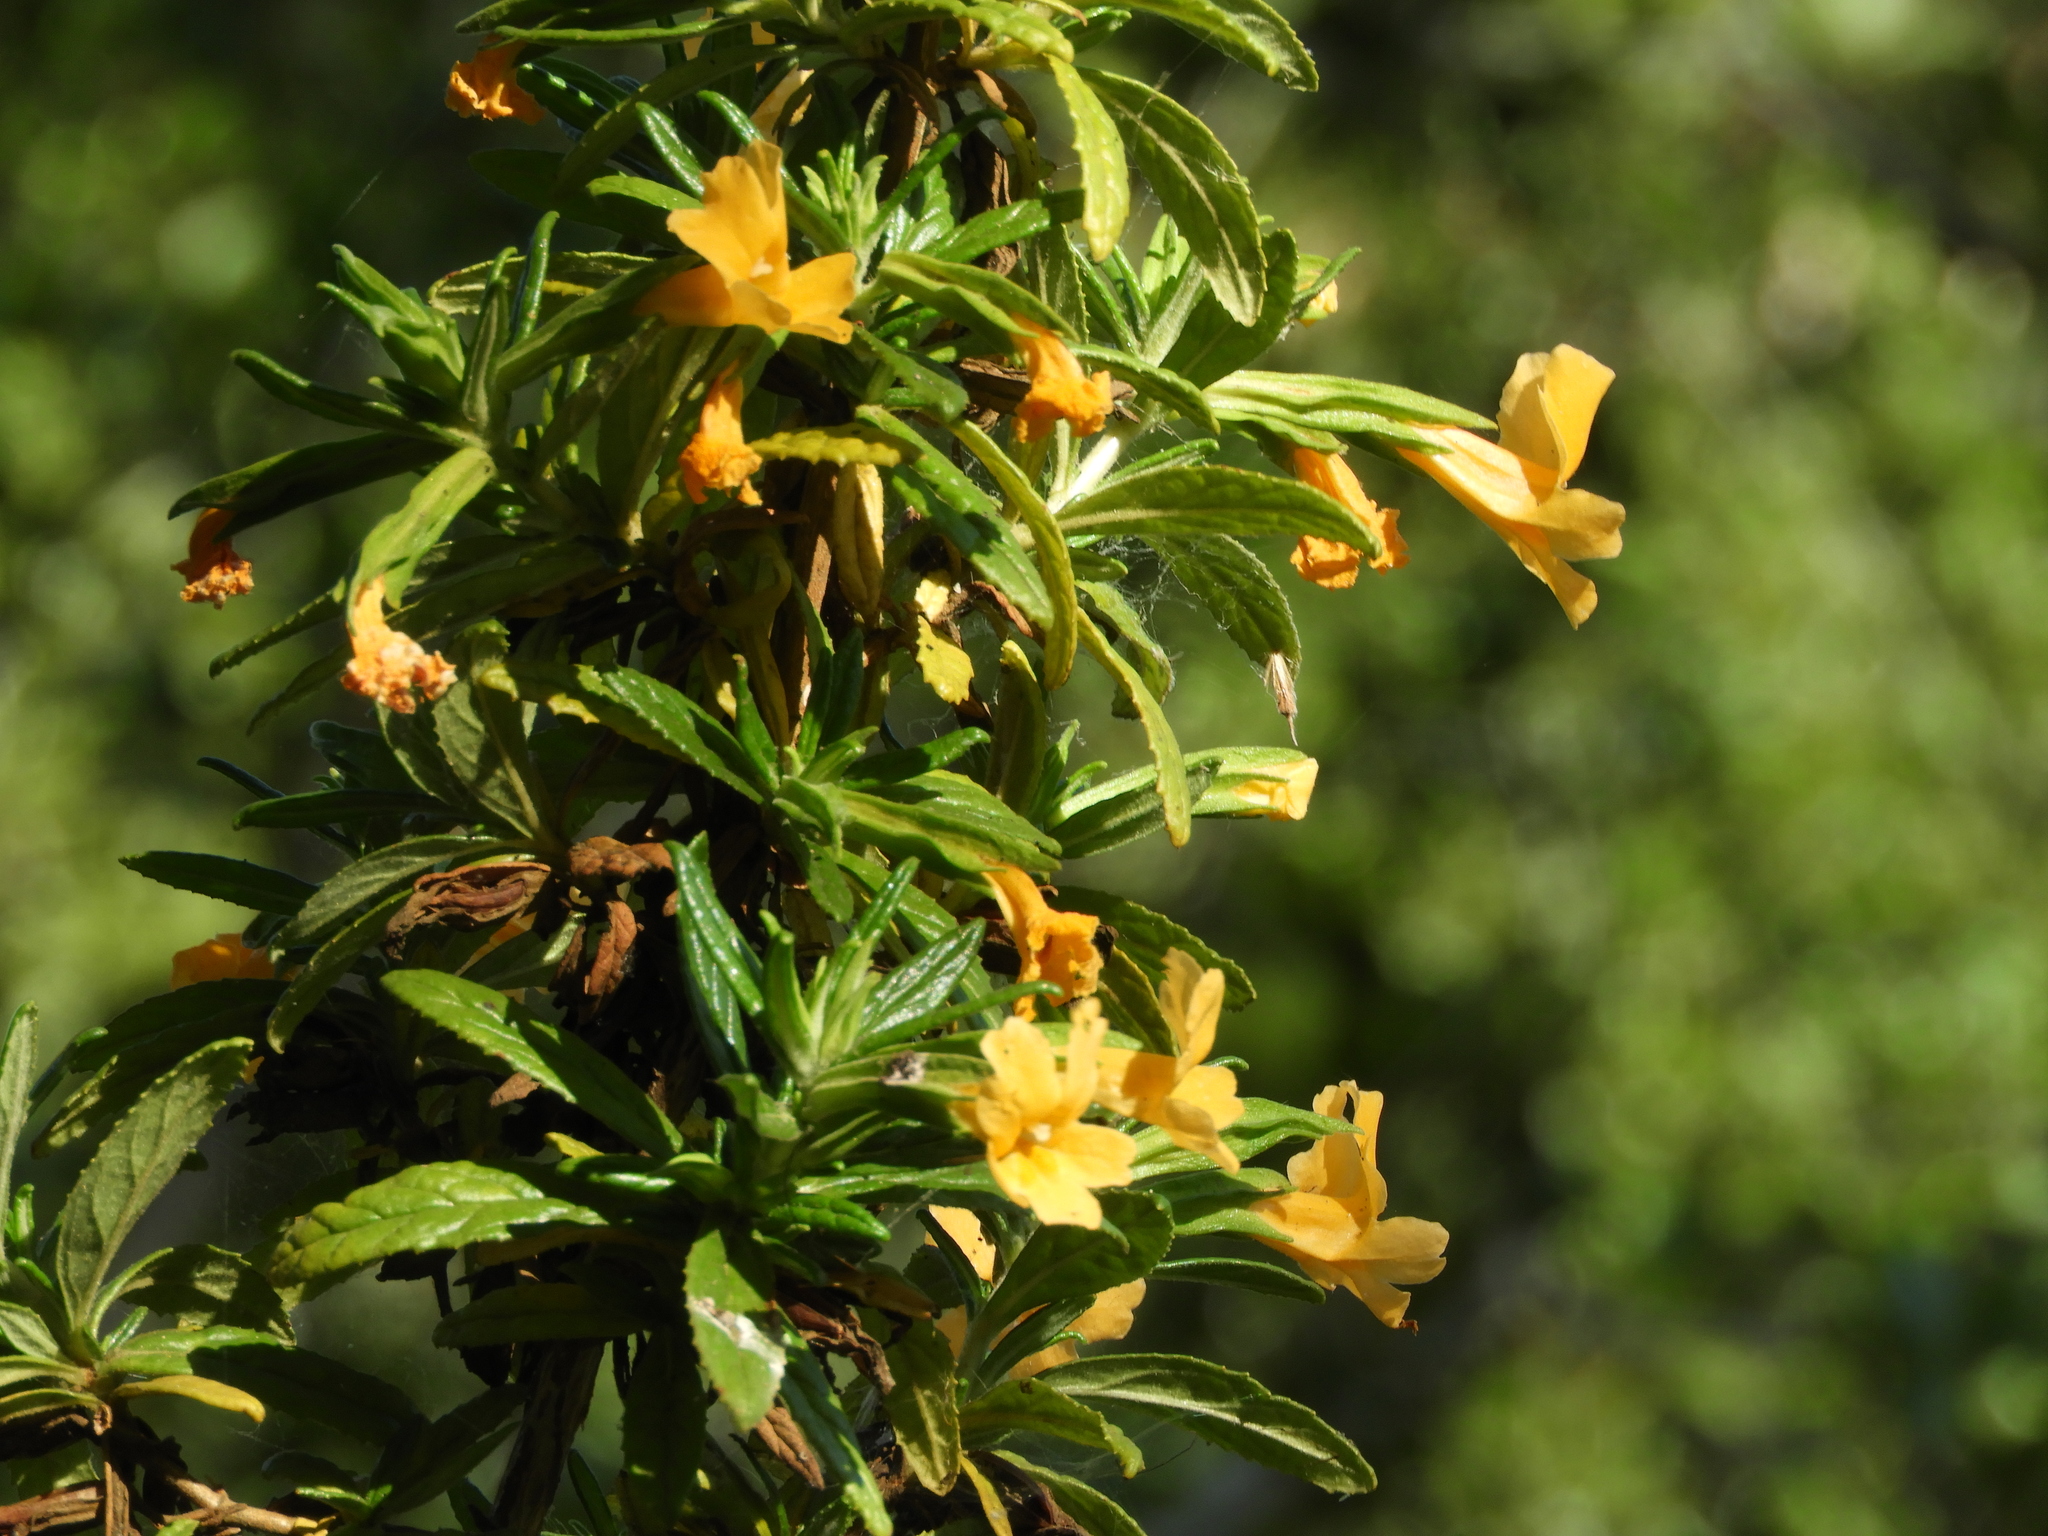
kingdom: Plantae
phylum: Tracheophyta
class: Magnoliopsida
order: Lamiales
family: Phrymaceae
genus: Diplacus
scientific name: Diplacus aurantiacus
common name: Bush monkey-flower
